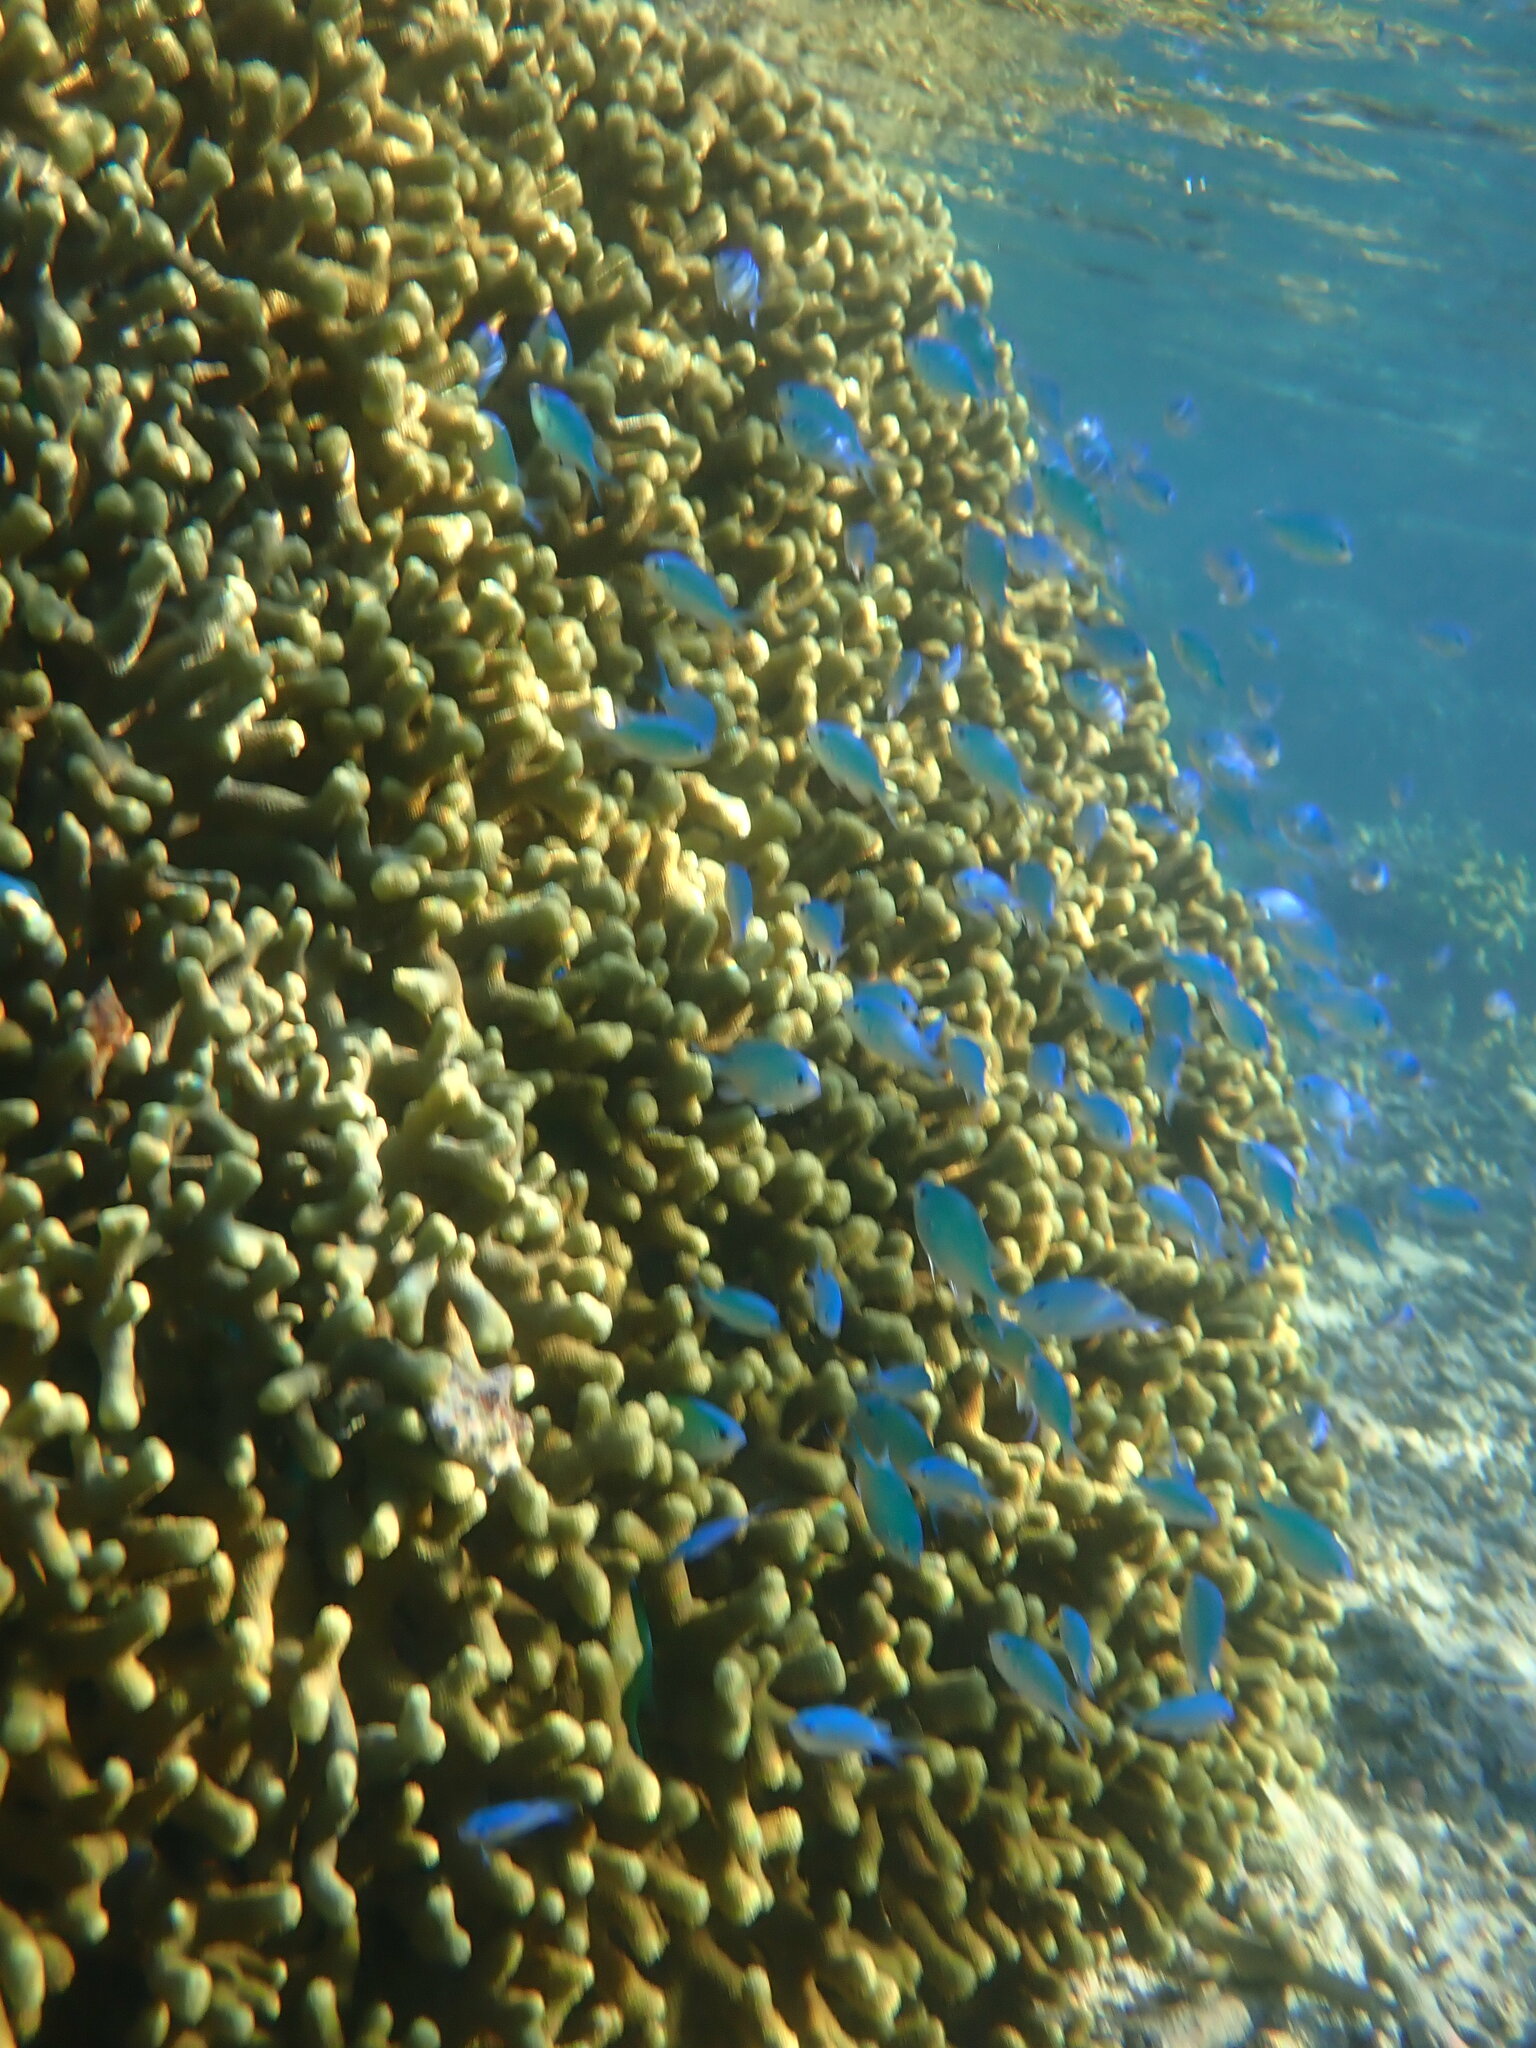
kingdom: Animalia
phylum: Chordata
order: Perciformes
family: Pomacentridae
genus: Chromis
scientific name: Chromis viridis
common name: Blue-green chromis
